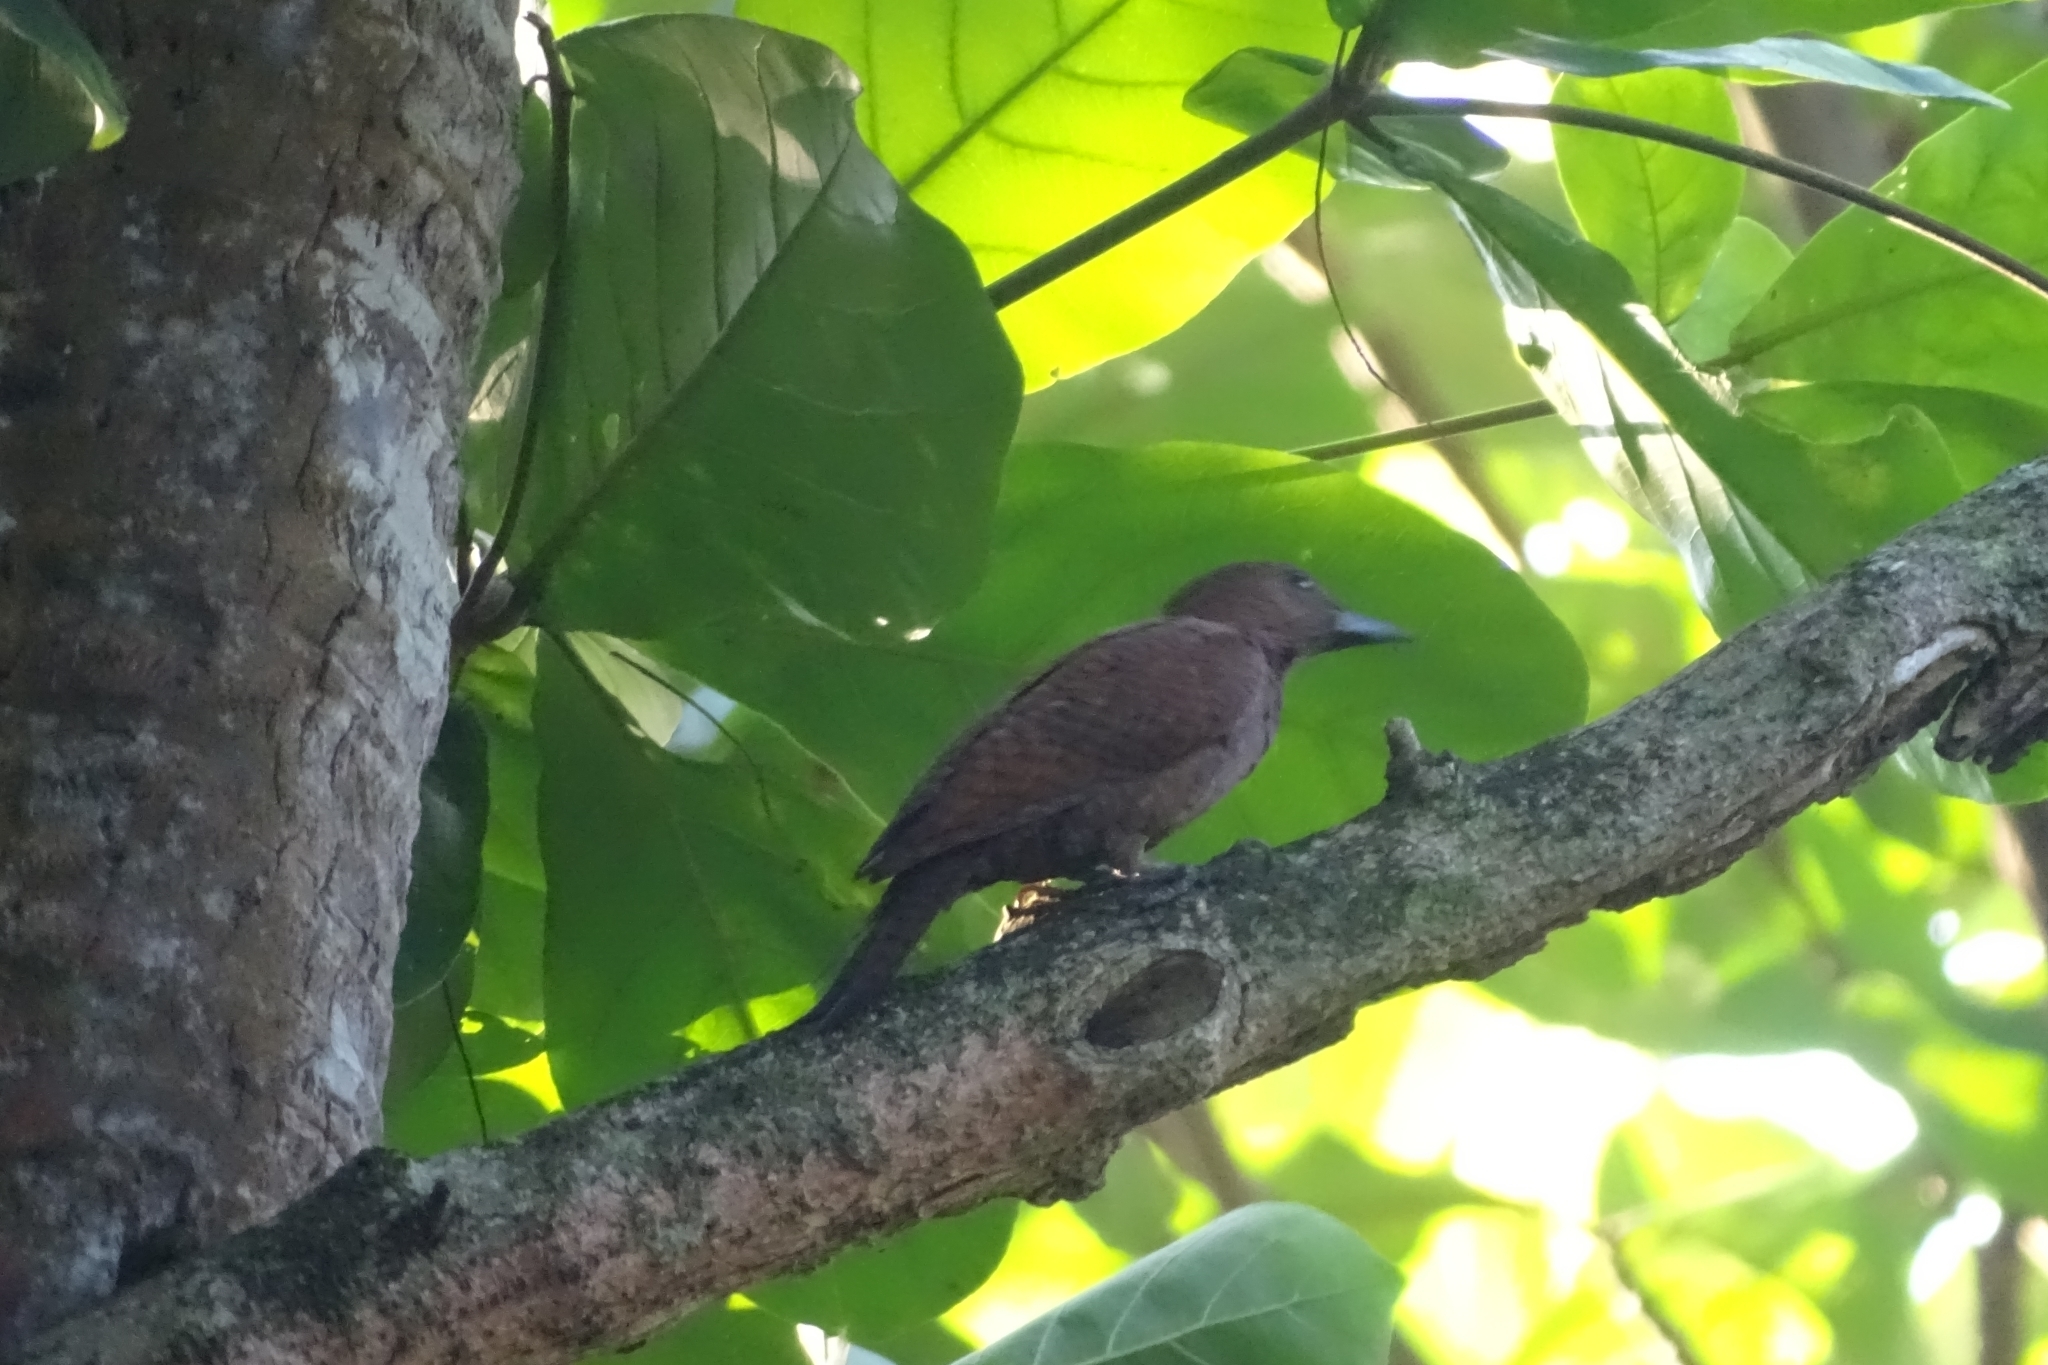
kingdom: Animalia
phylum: Chordata
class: Aves
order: Piciformes
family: Picidae
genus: Micropternus
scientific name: Micropternus brachyurus
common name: Rufous woodpecker
